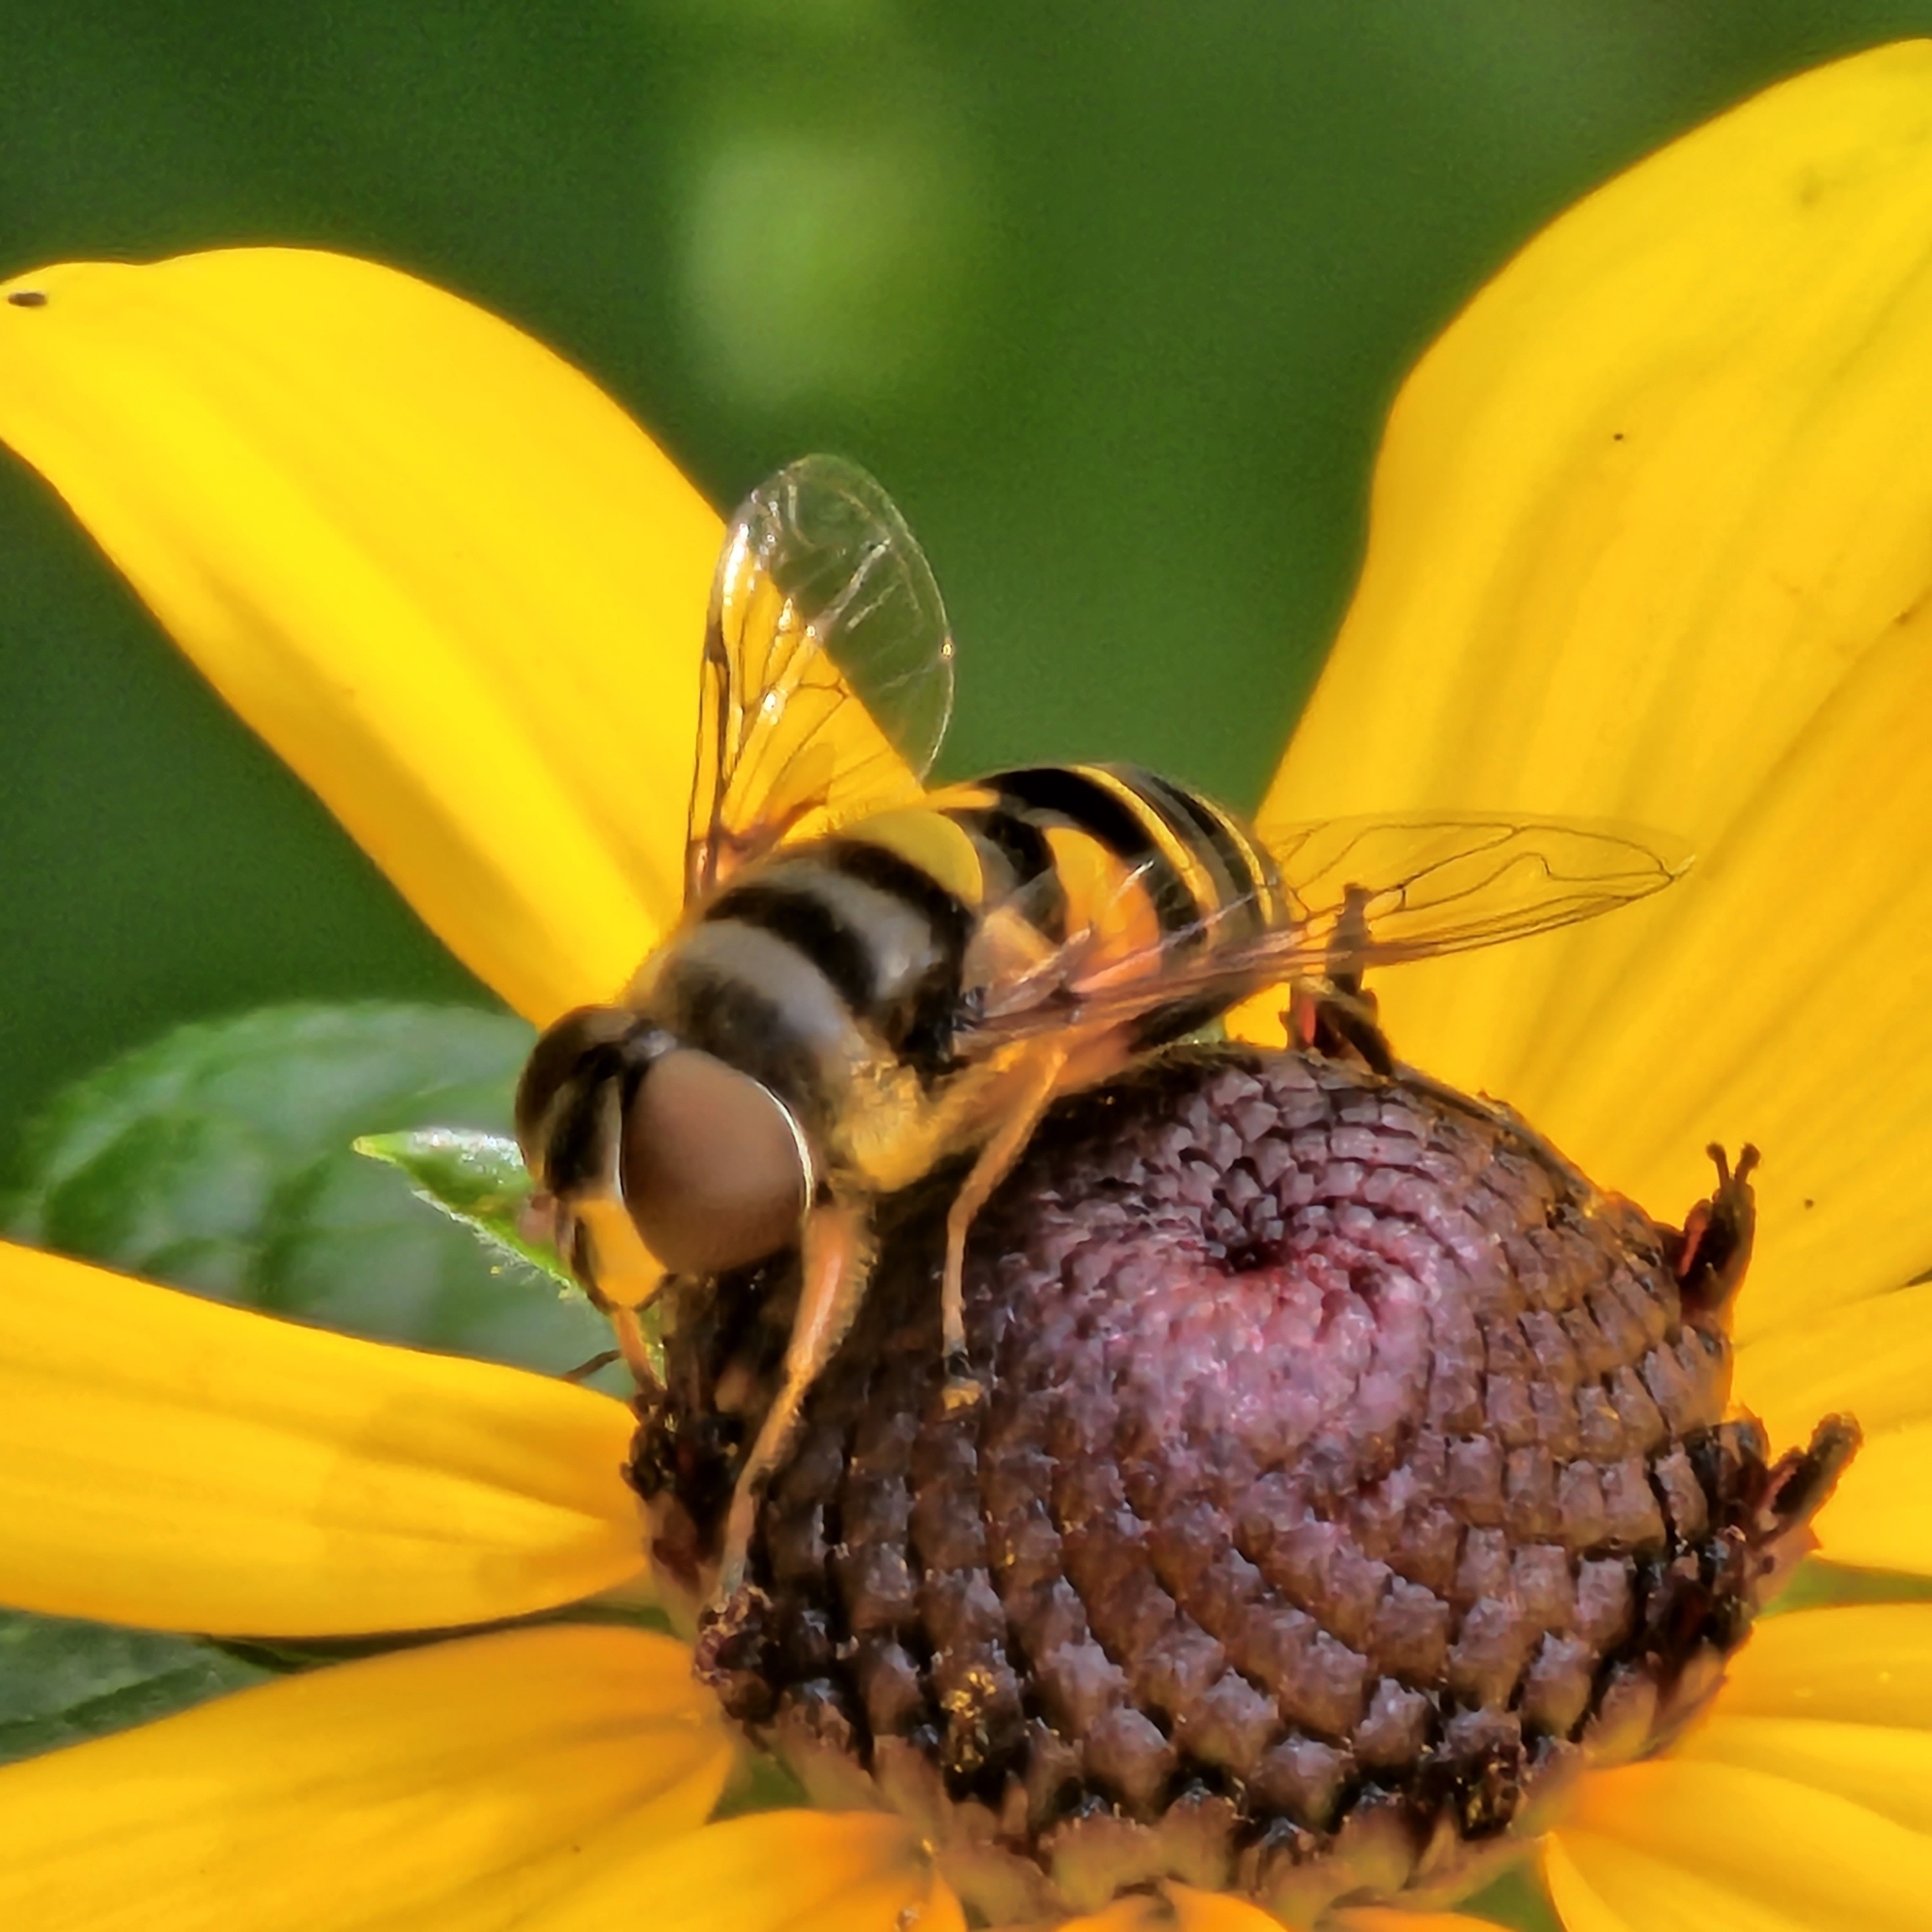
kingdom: Animalia
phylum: Arthropoda
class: Insecta
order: Diptera
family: Syrphidae
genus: Eristalis
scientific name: Eristalis transversa
